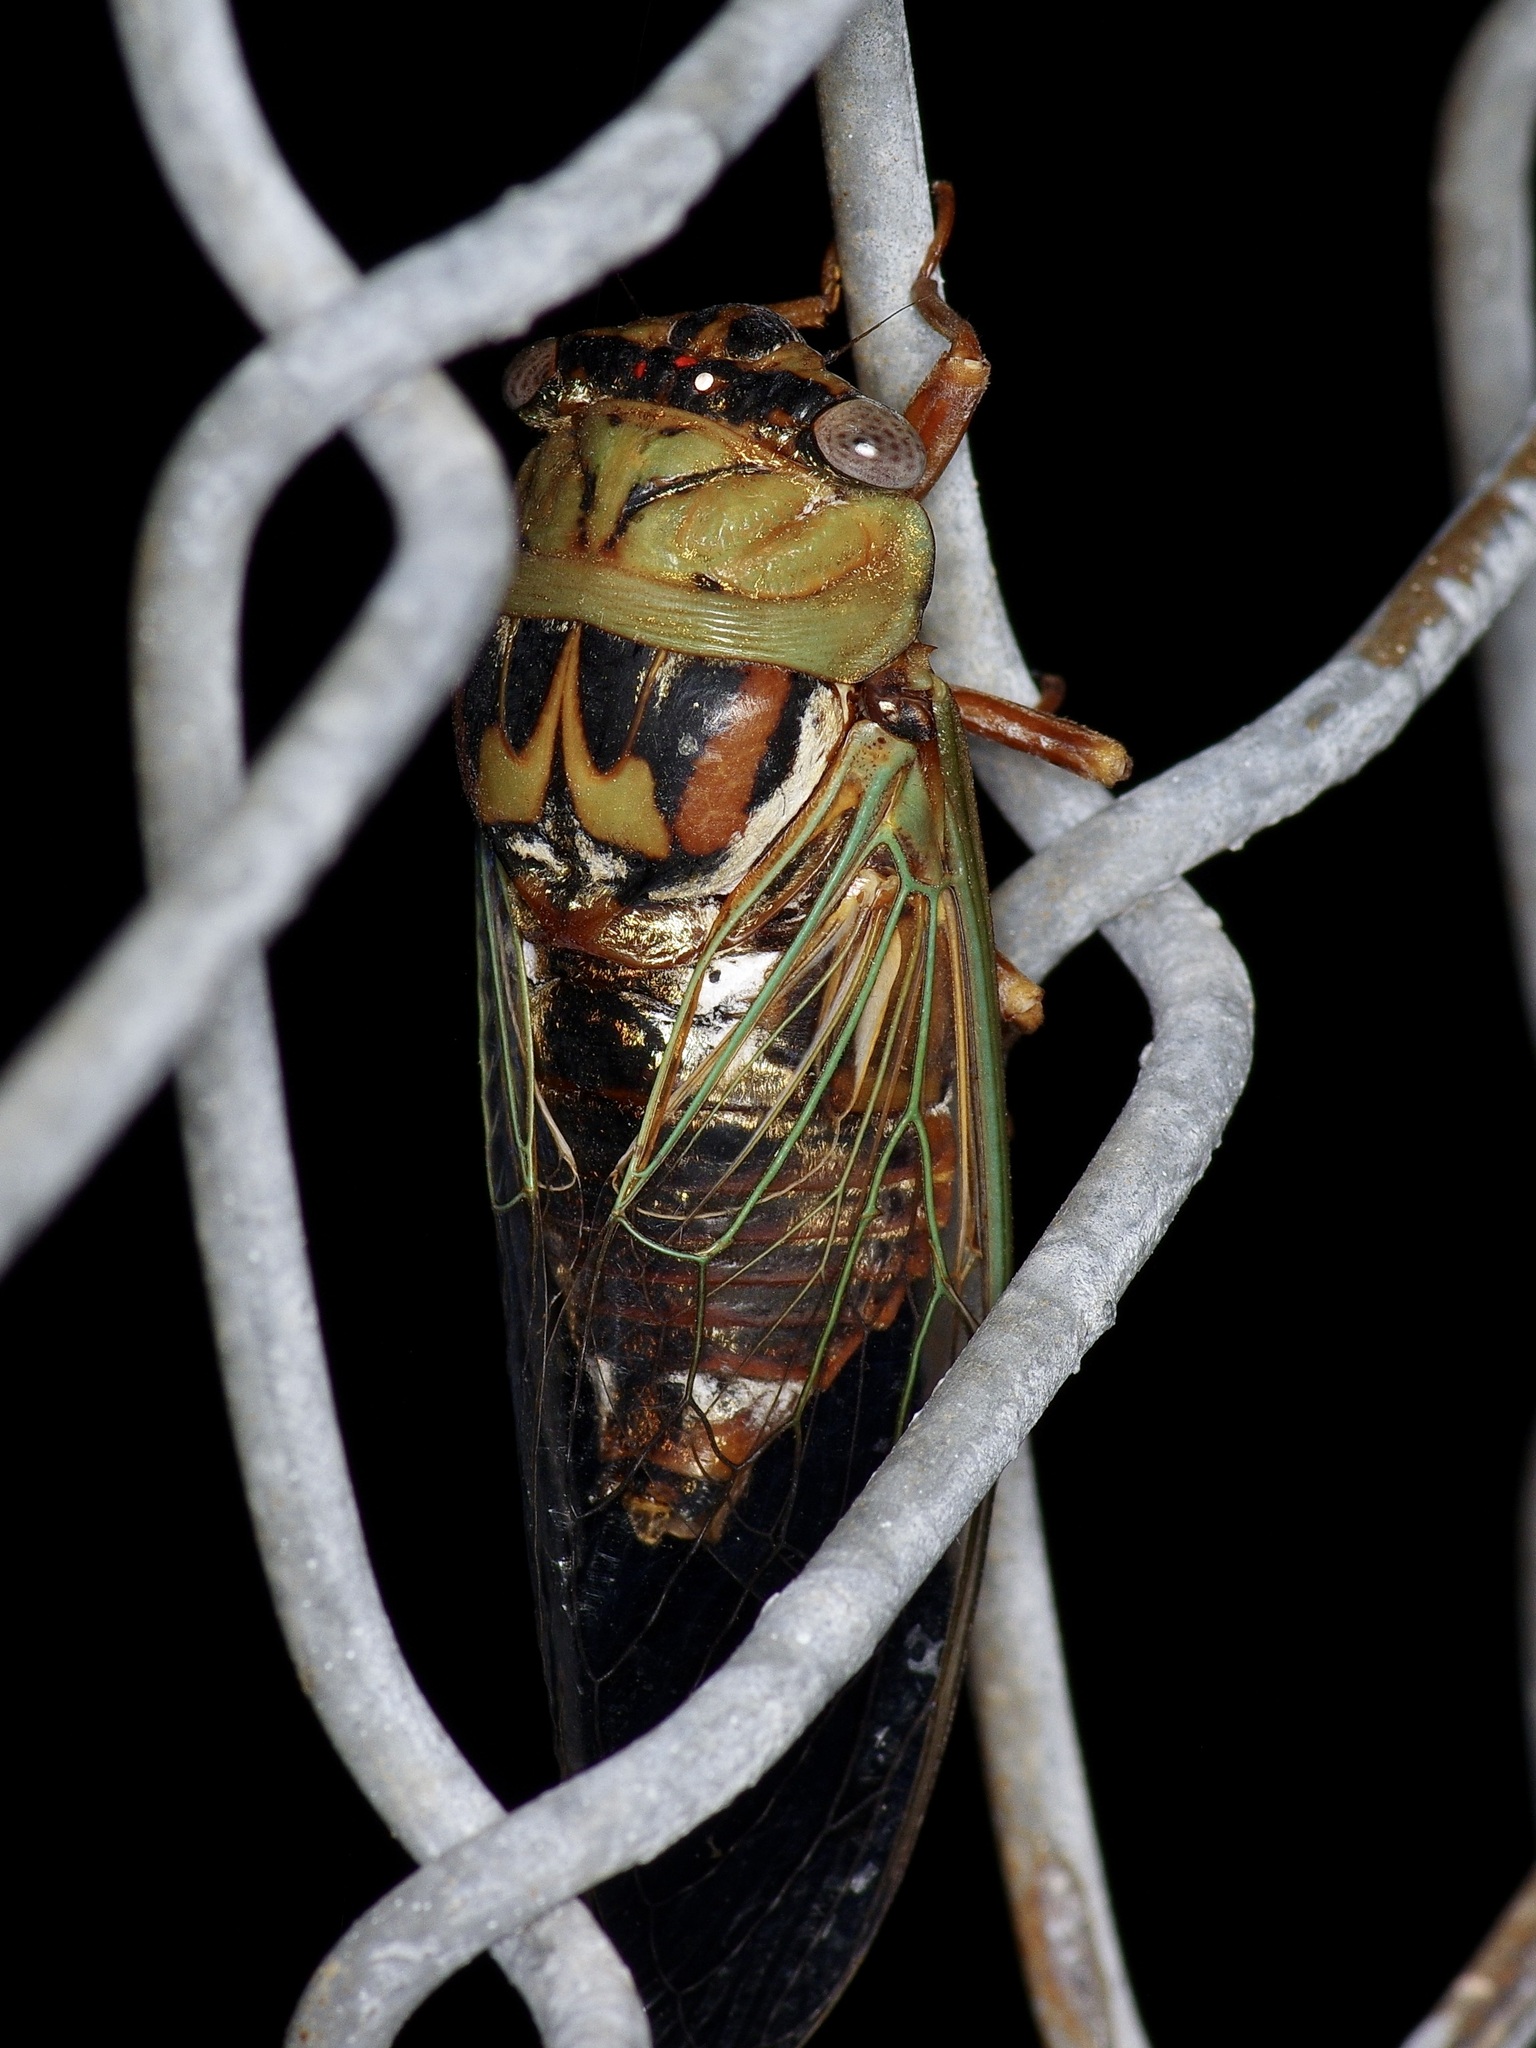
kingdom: Animalia
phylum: Arthropoda
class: Insecta
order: Hemiptera
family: Cicadidae
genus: Megatibicen
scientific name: Megatibicen resh
